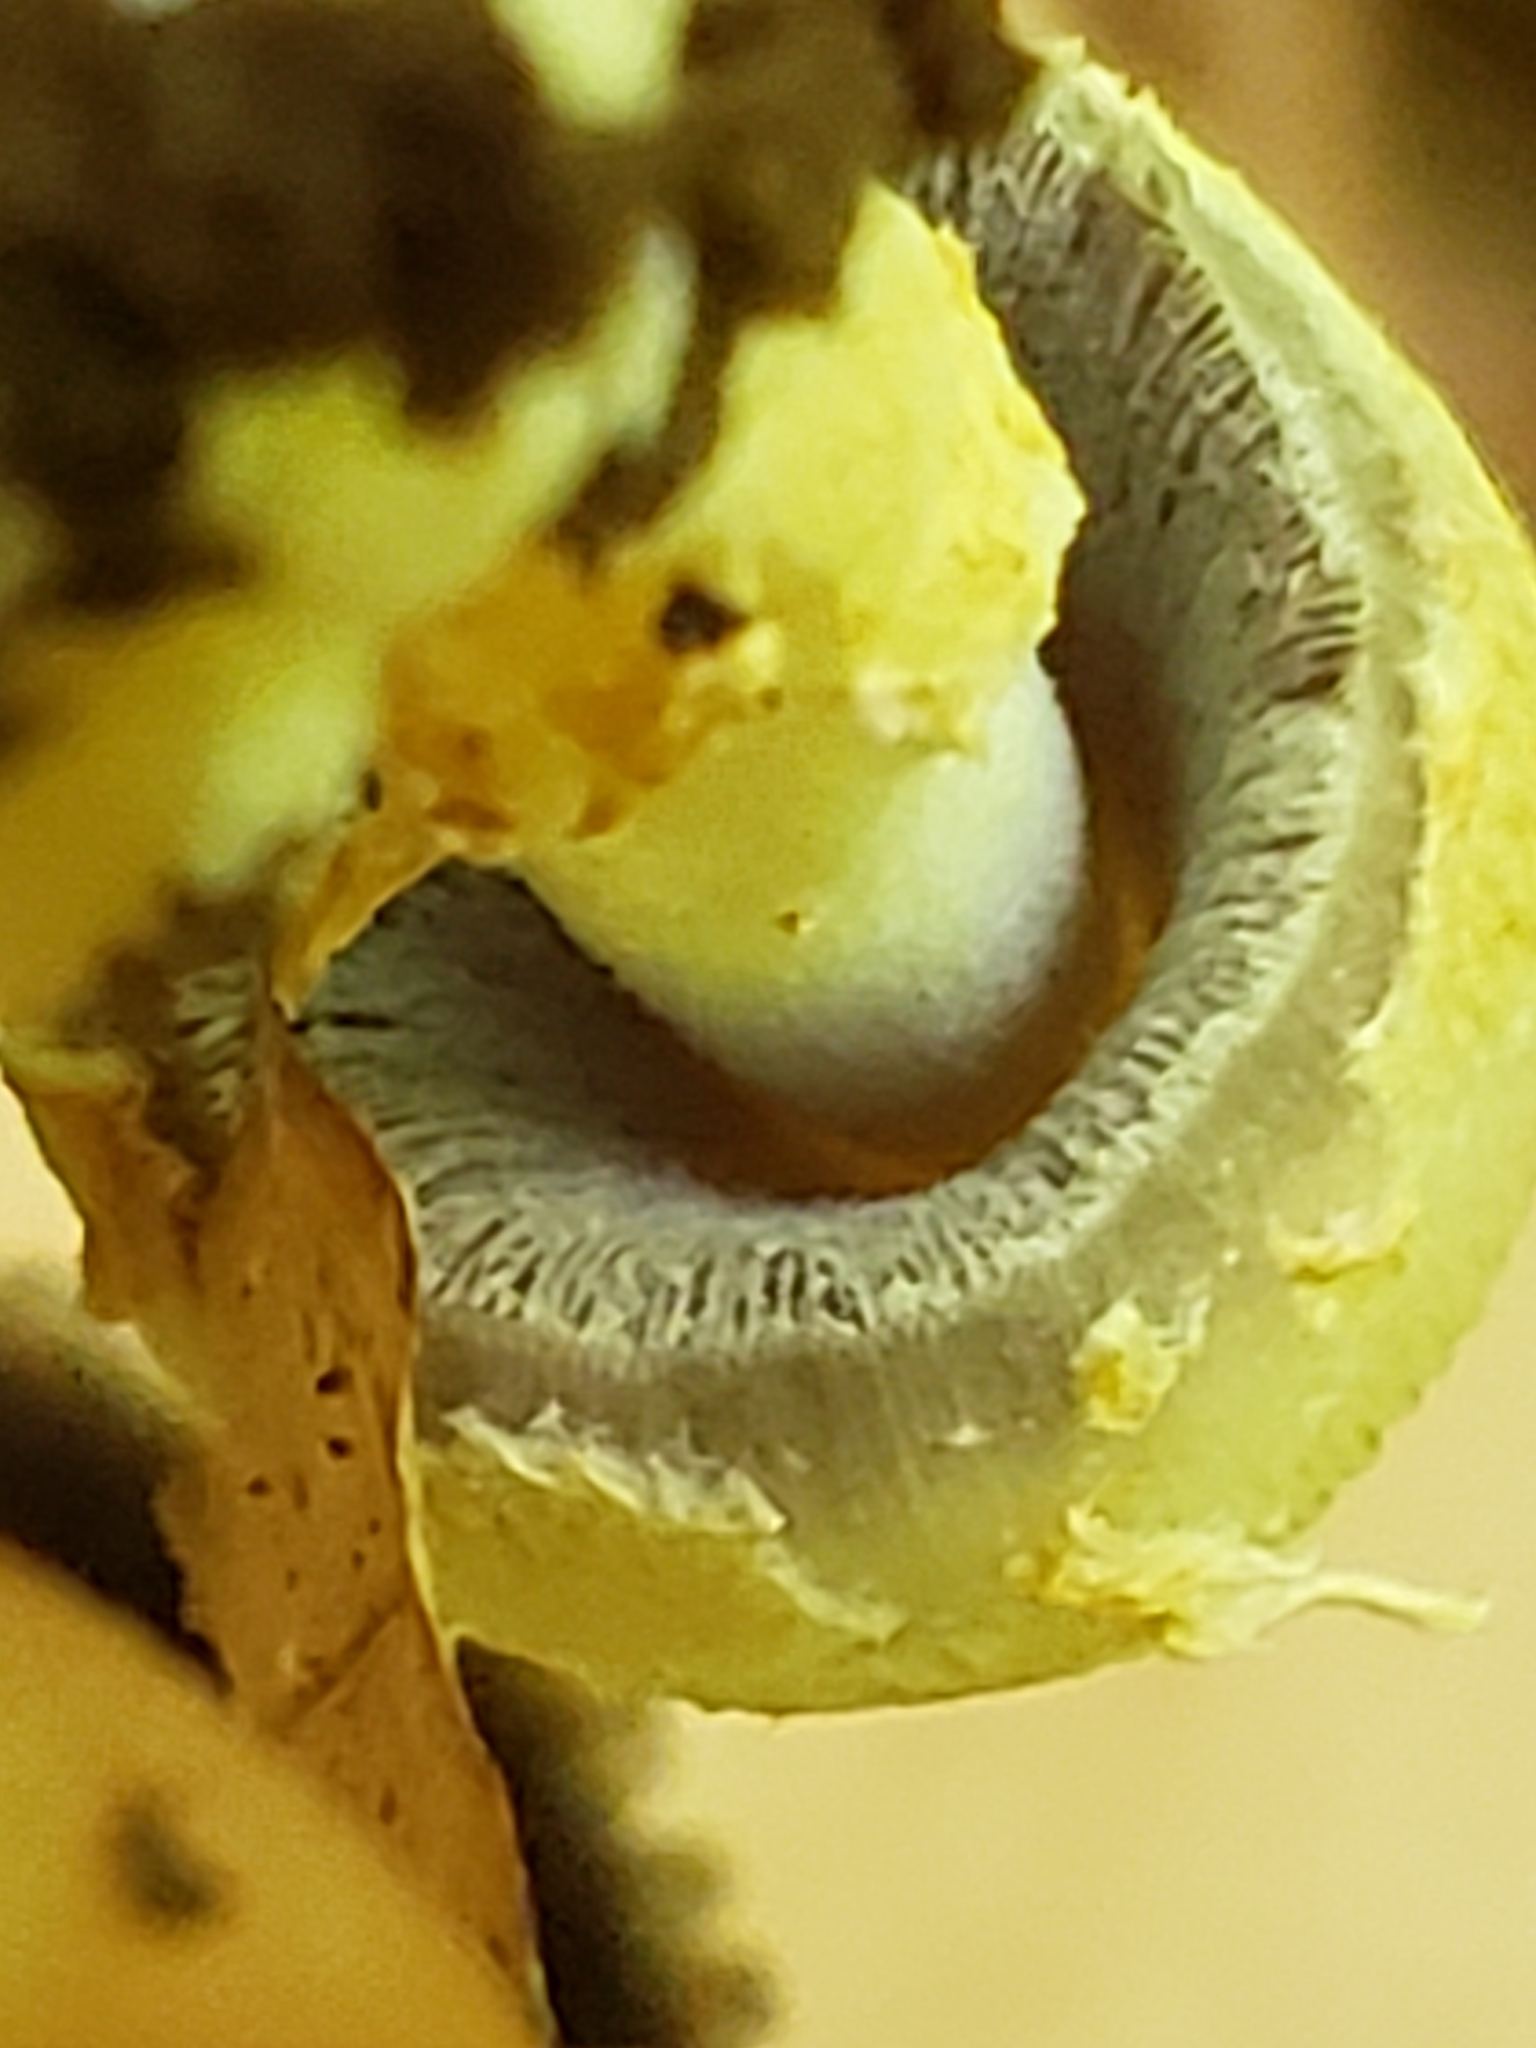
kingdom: Fungi
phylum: Basidiomycota
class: Agaricomycetes
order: Agaricales
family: Psathyrellaceae
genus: Coprinopsis
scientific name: Coprinopsis variegata
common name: Scaly ink cap
